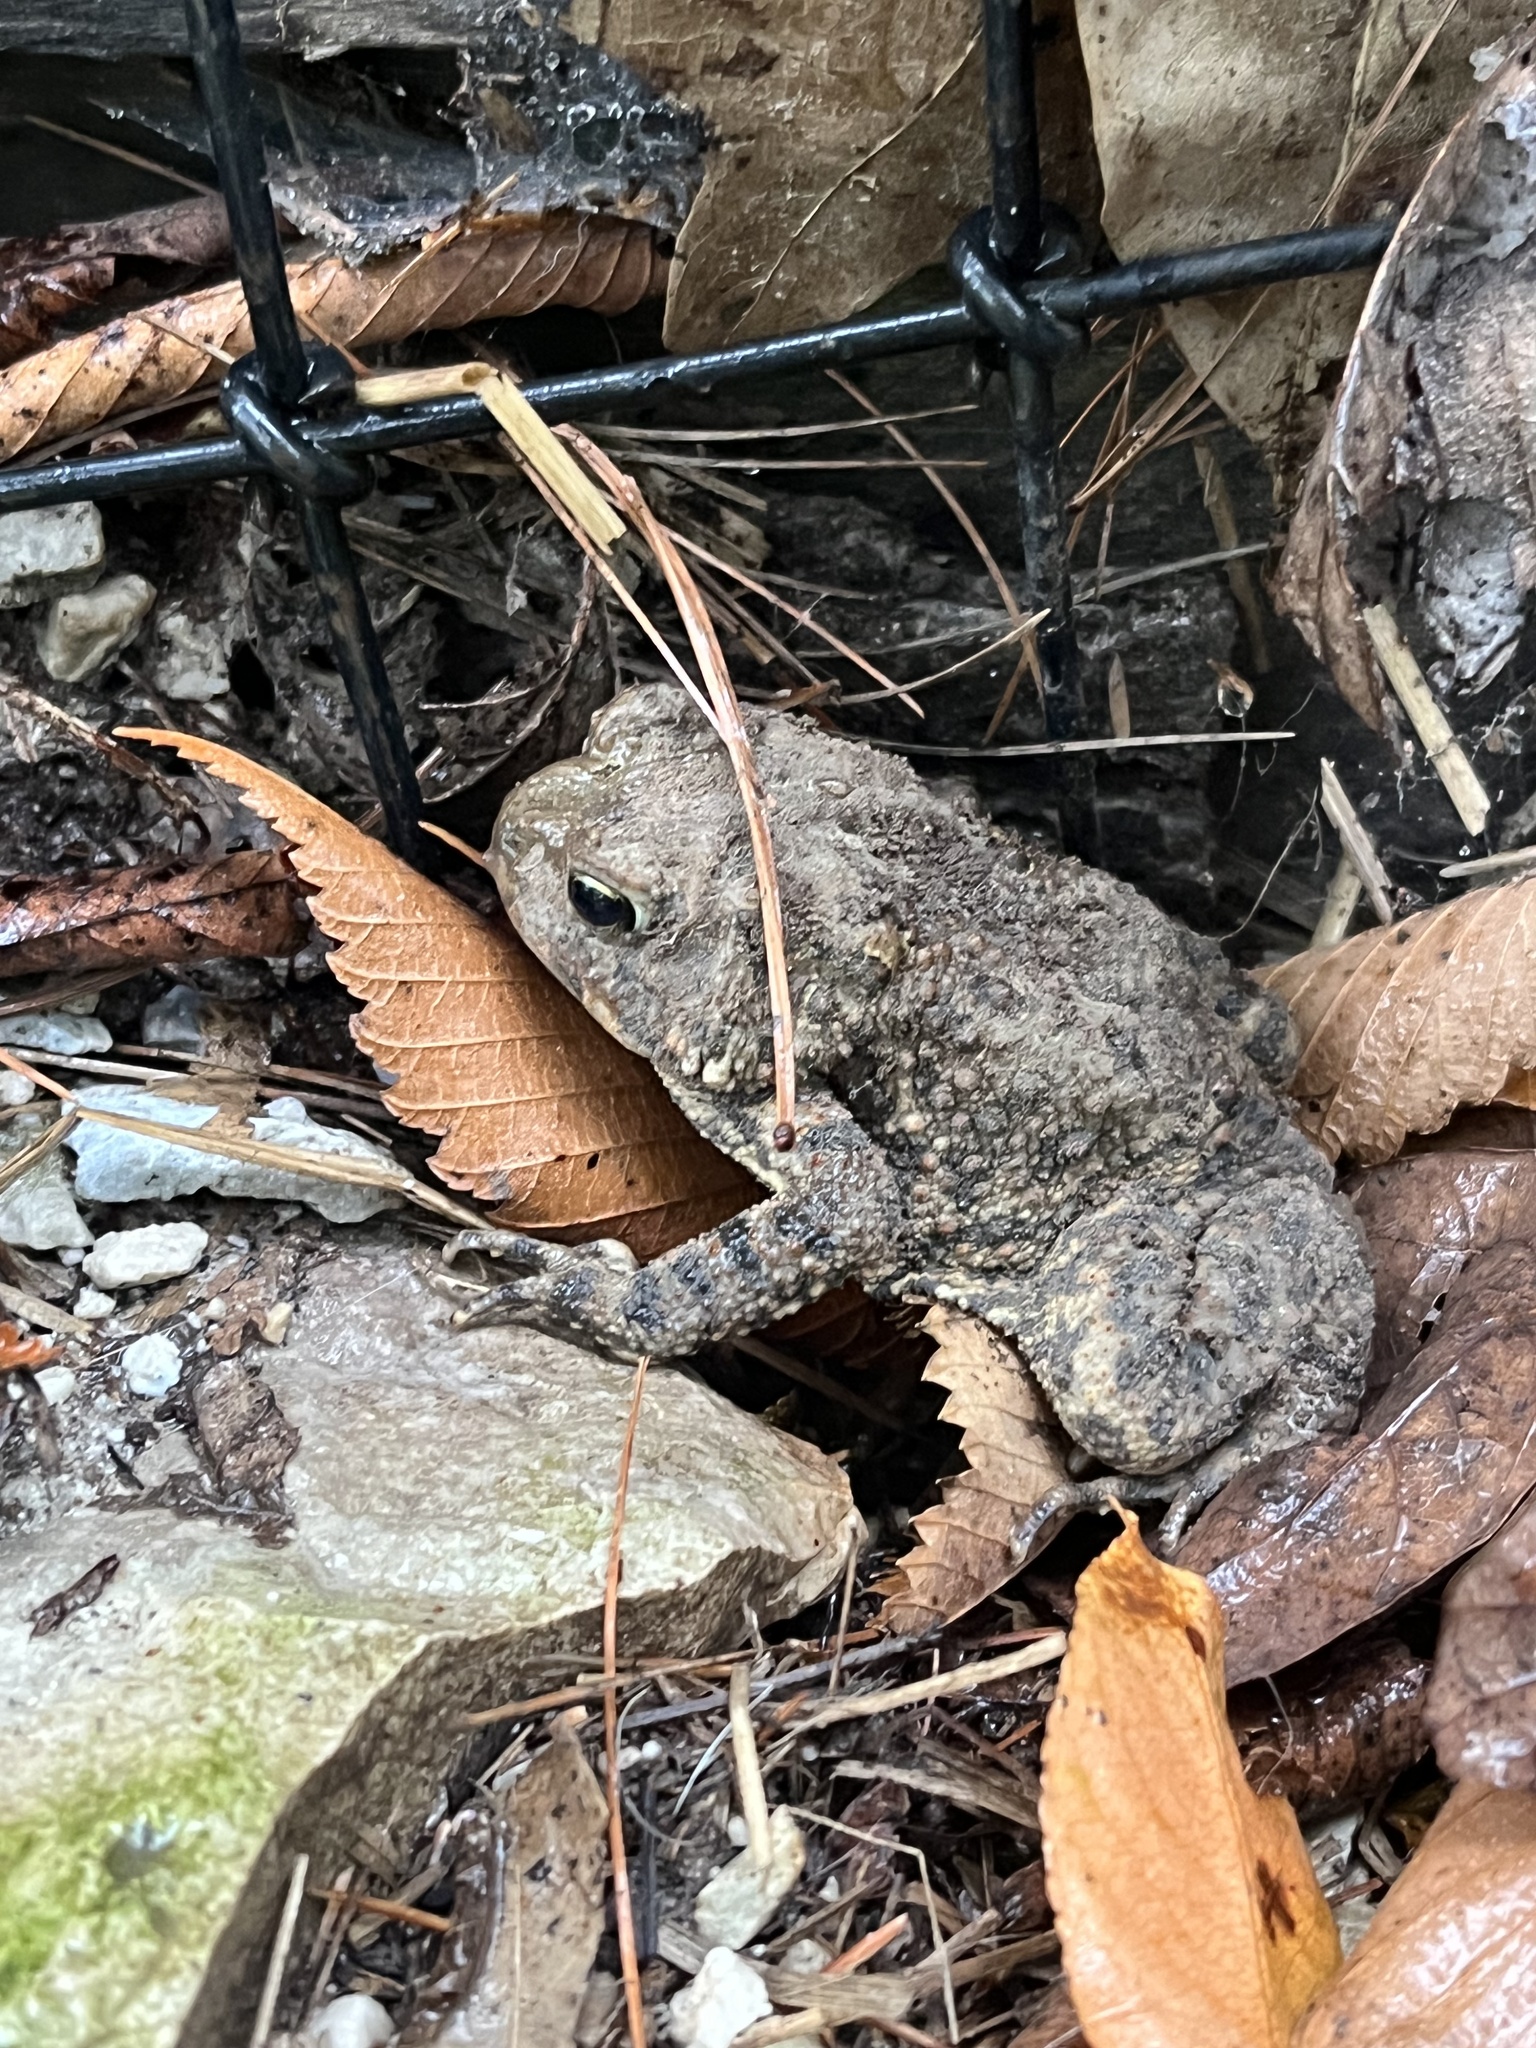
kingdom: Animalia
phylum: Chordata
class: Amphibia
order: Anura
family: Bufonidae
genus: Anaxyrus
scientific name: Anaxyrus americanus
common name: American toad
